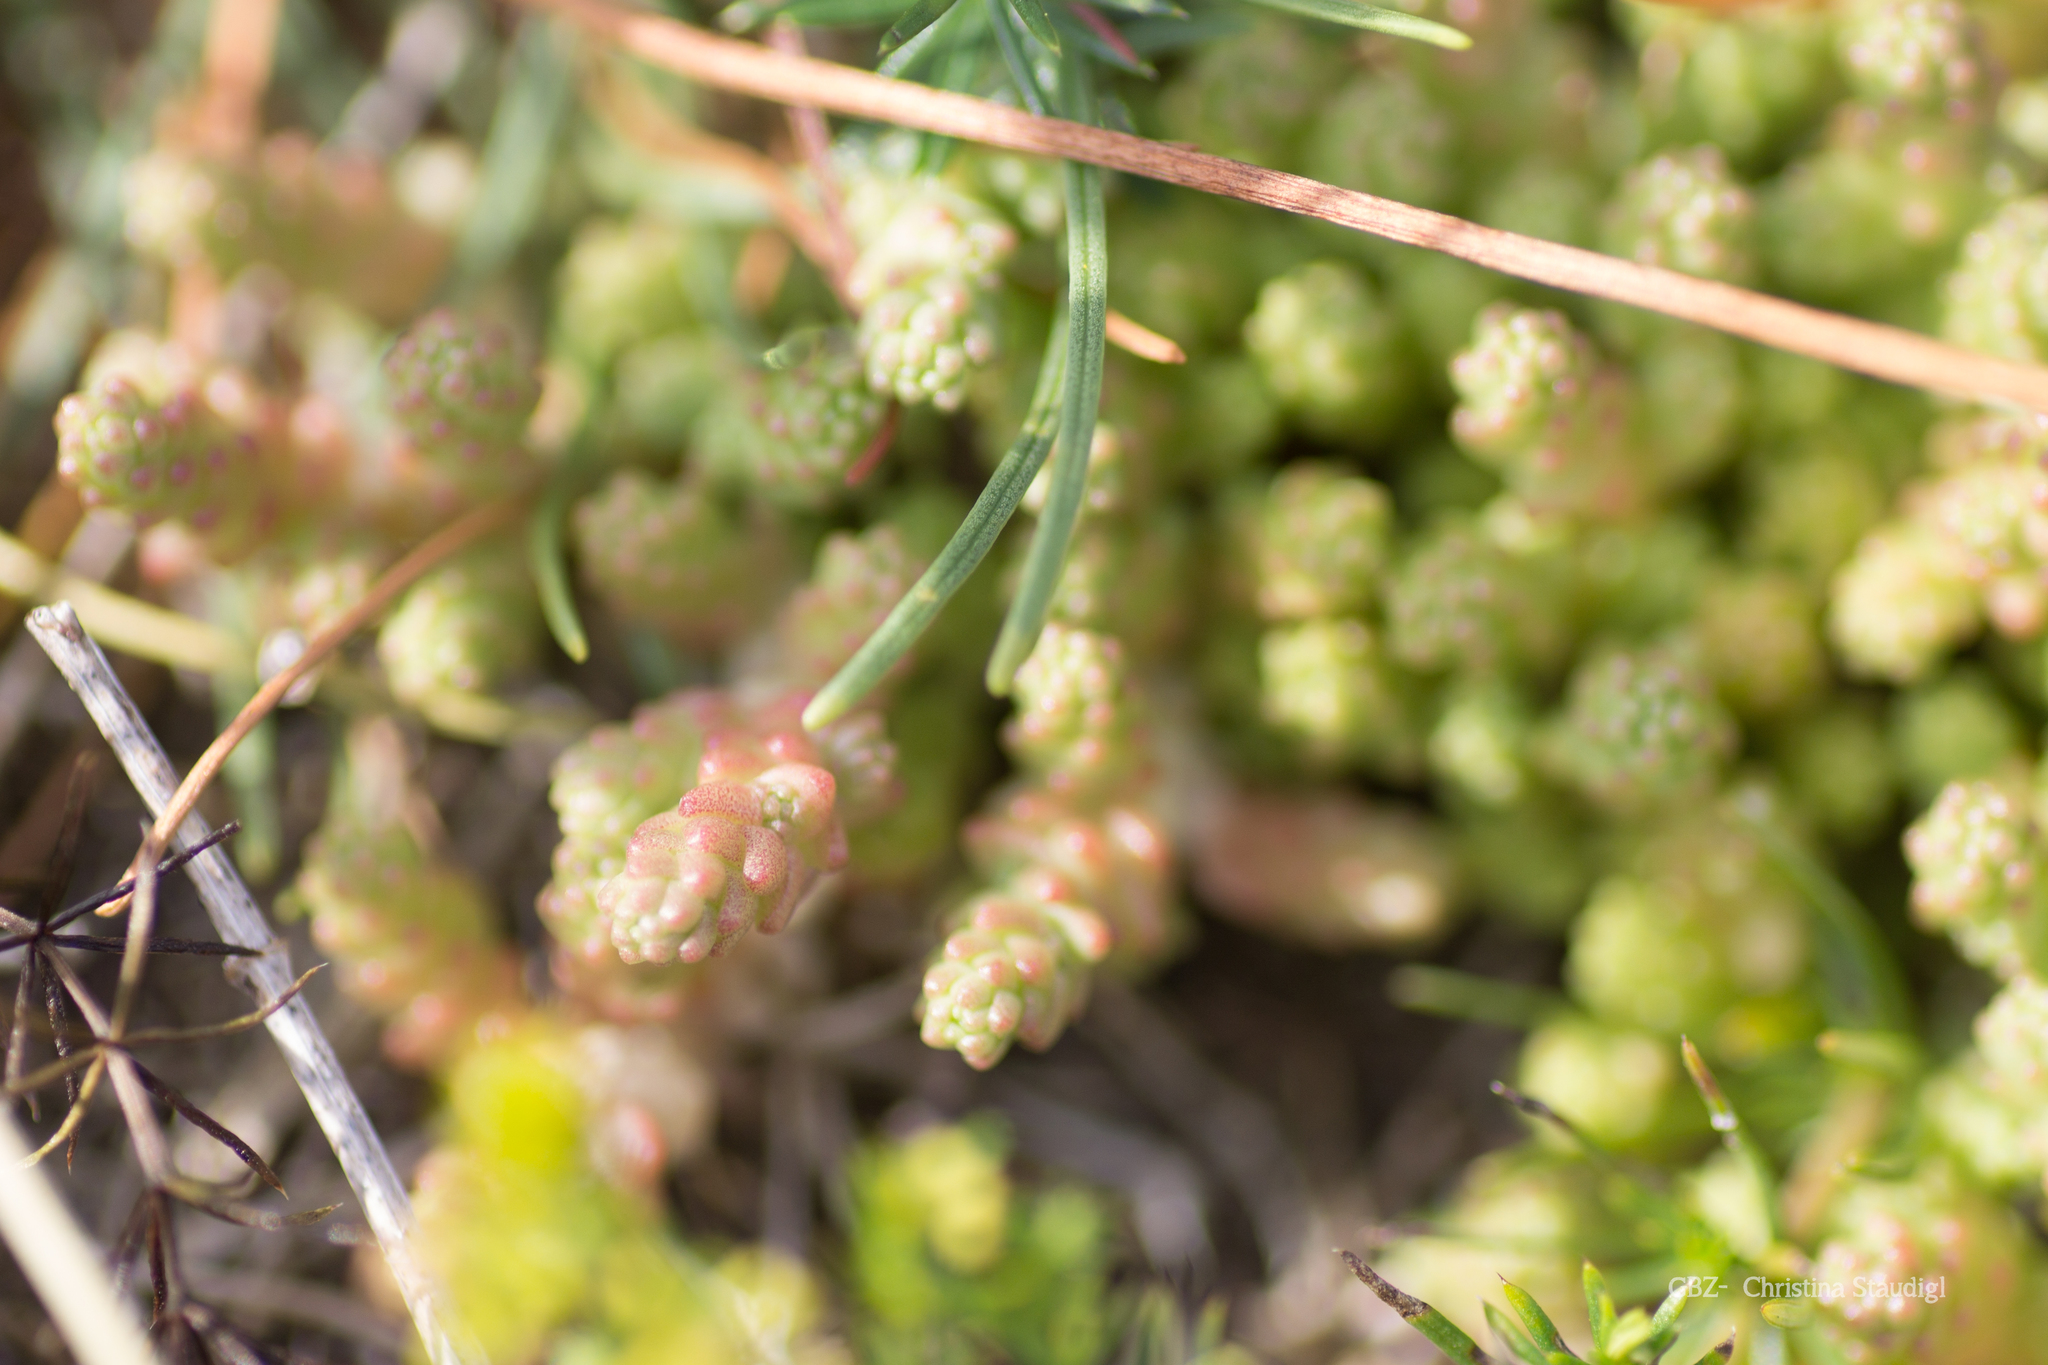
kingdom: Plantae
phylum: Tracheophyta
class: Magnoliopsida
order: Saxifragales
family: Crassulaceae
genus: Sedum
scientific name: Sedum acre
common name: Biting stonecrop
